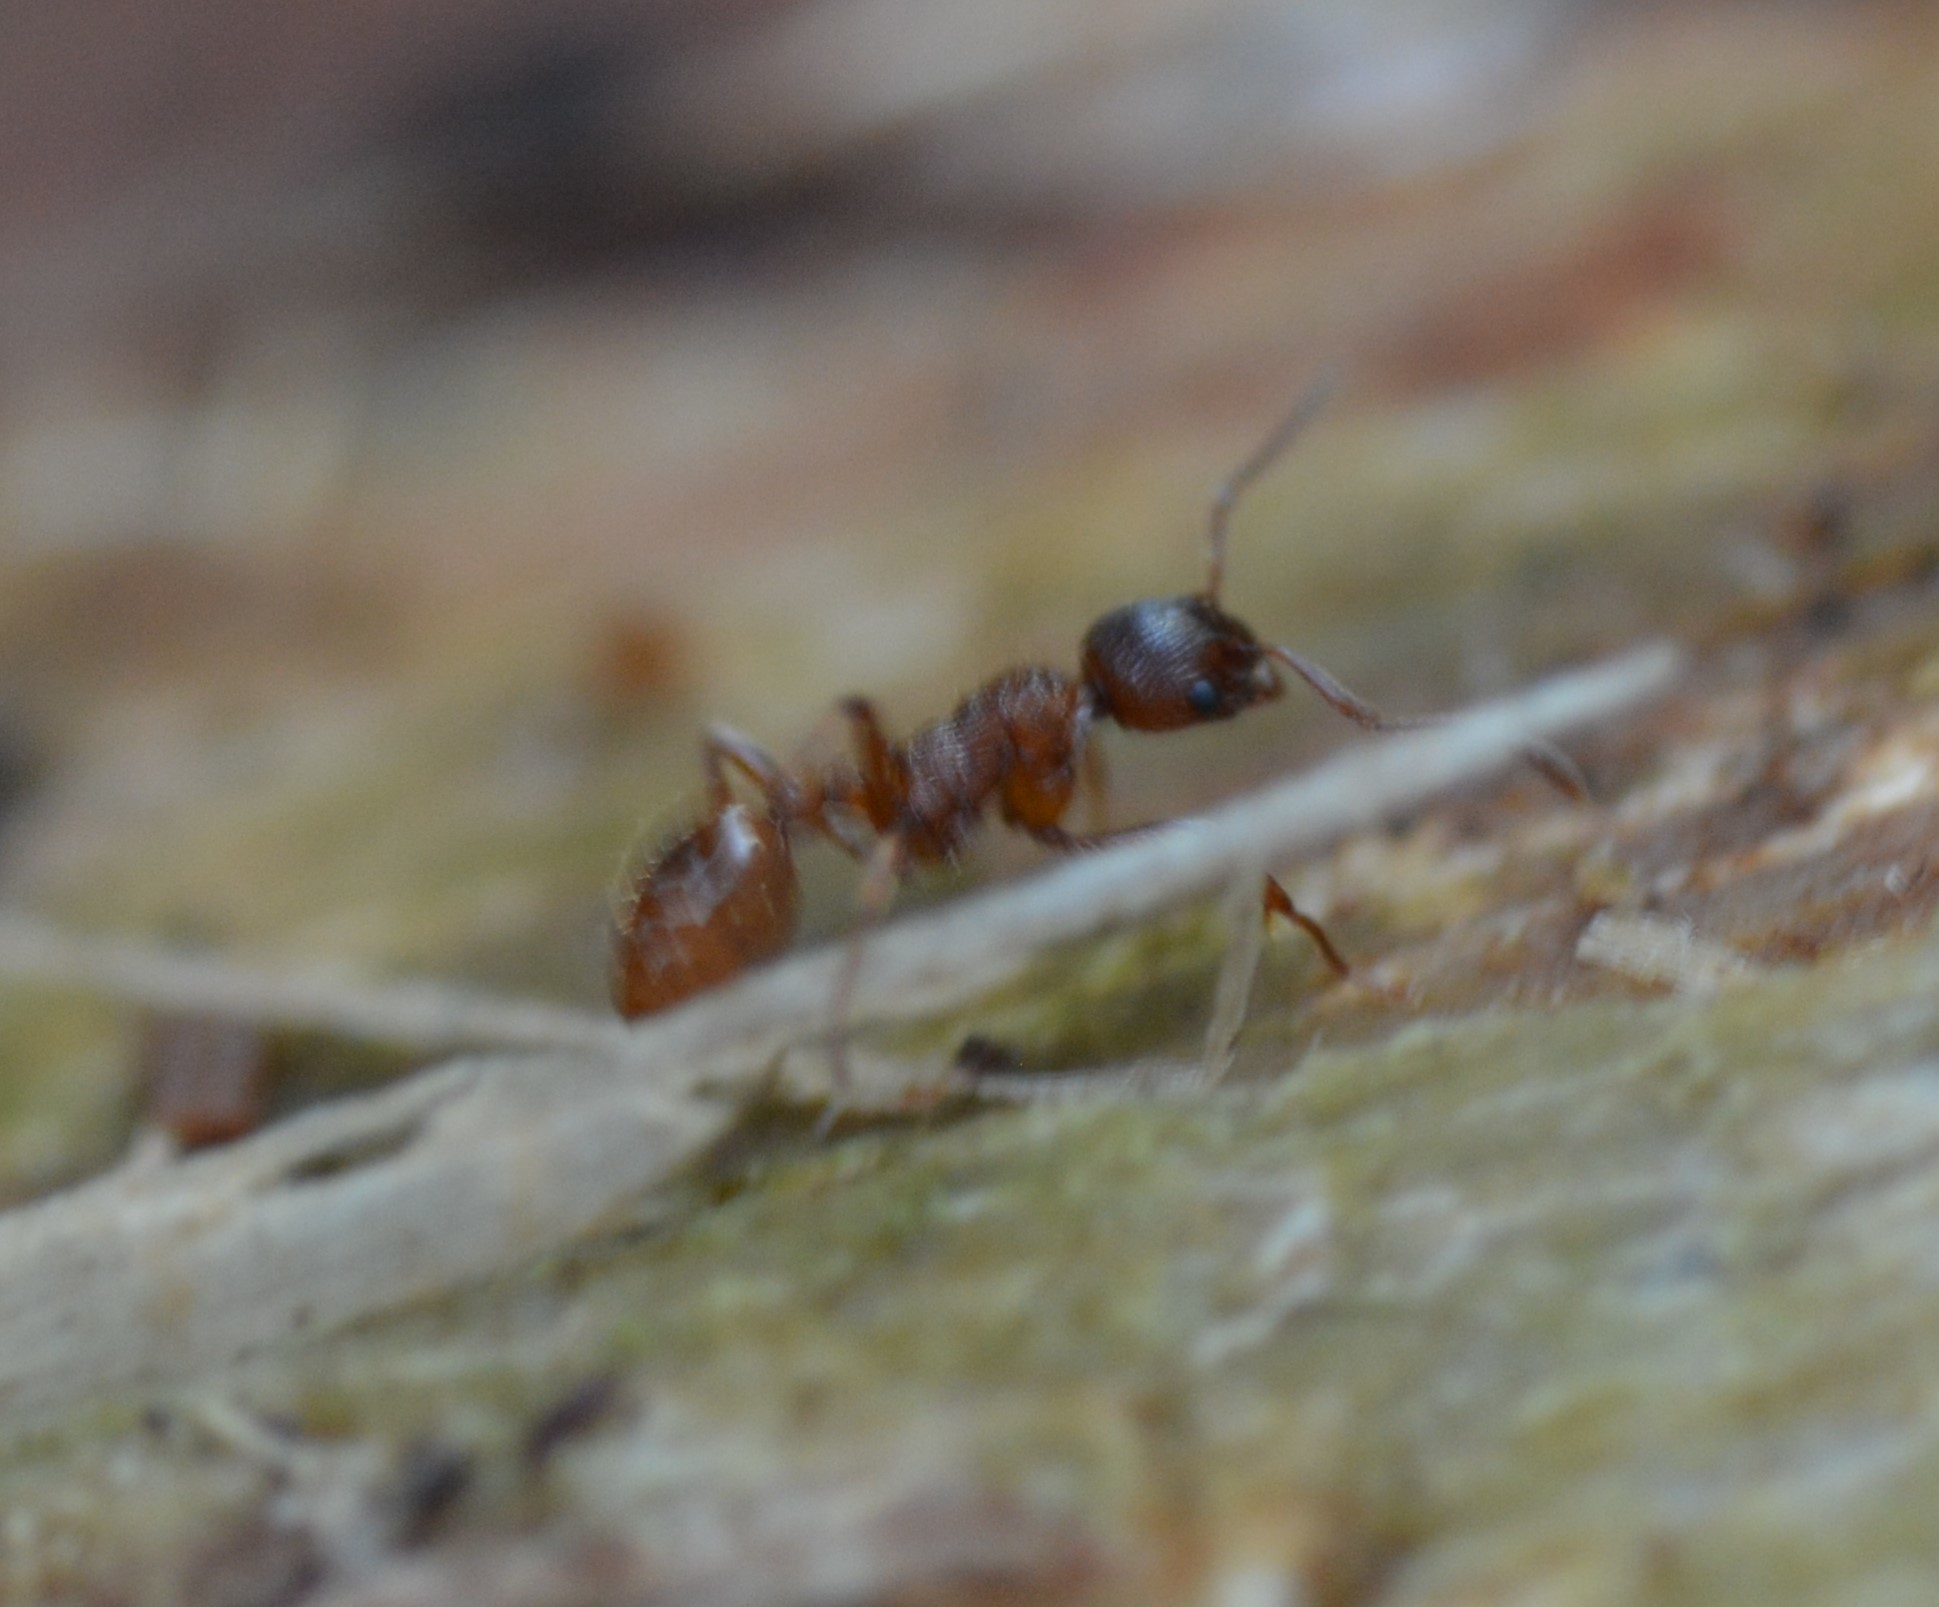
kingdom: Animalia
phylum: Arthropoda
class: Insecta
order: Hymenoptera
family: Formicidae
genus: Myrmica
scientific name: Myrmica rubra
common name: European fire ant
